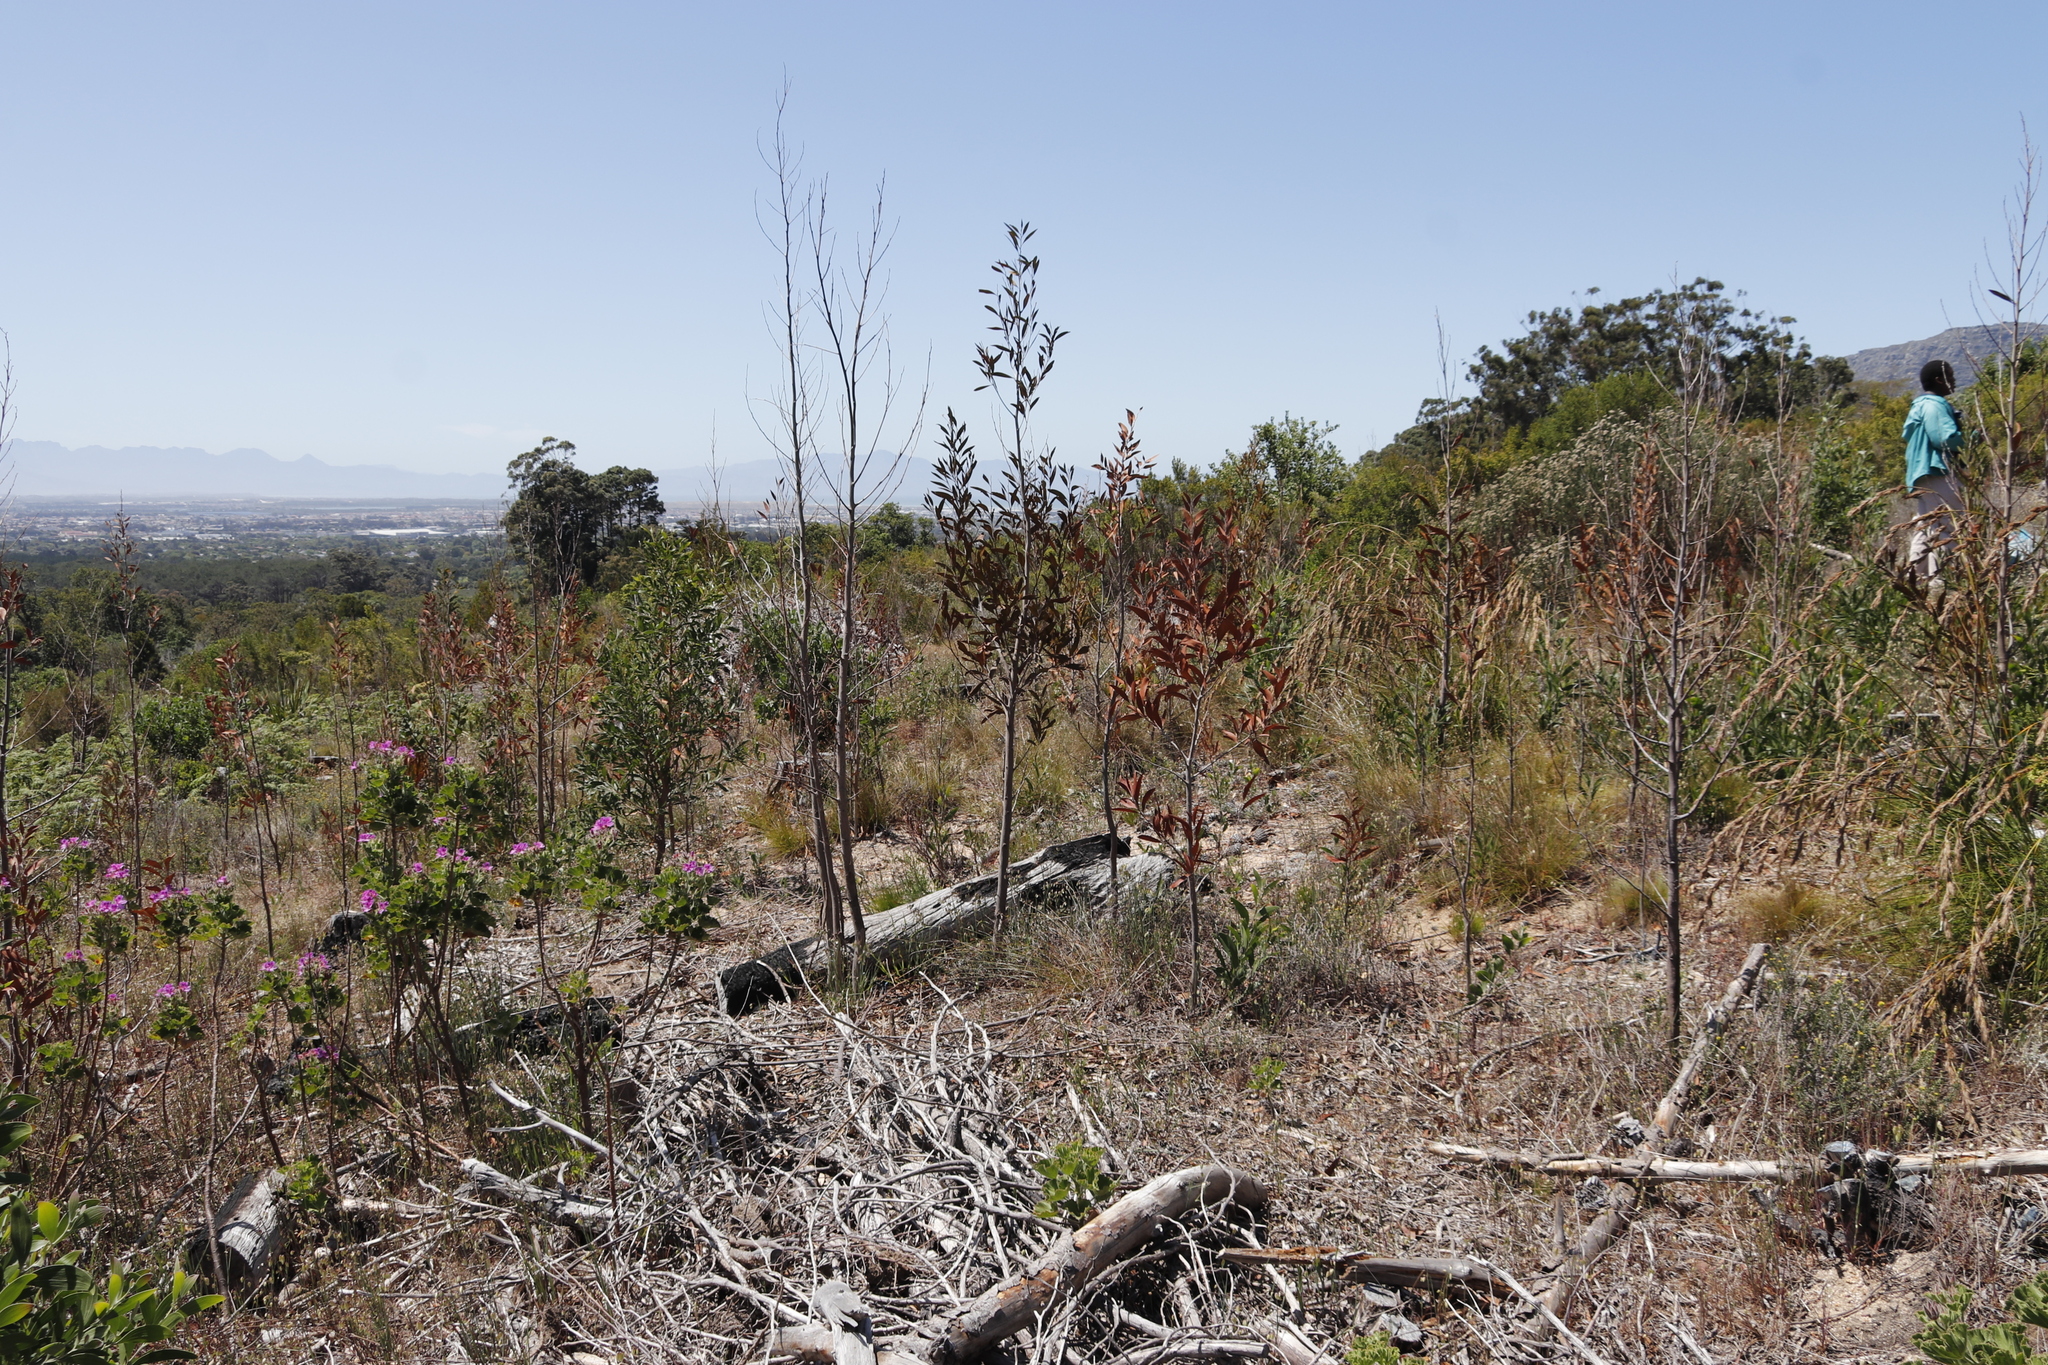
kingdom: Plantae
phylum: Tracheophyta
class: Magnoliopsida
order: Fabales
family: Fabaceae
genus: Acacia
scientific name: Acacia melanoxylon
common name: Blackwood
